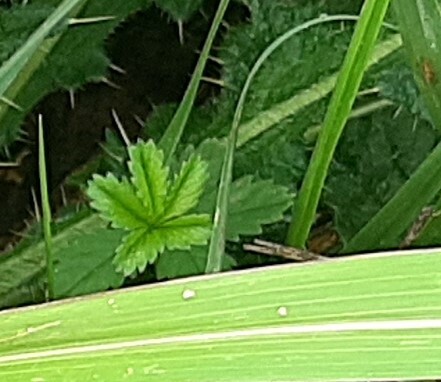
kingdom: Plantae
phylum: Tracheophyta
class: Magnoliopsida
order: Rosales
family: Rosaceae
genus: Potentilla
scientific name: Potentilla reptans
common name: Creeping cinquefoil
